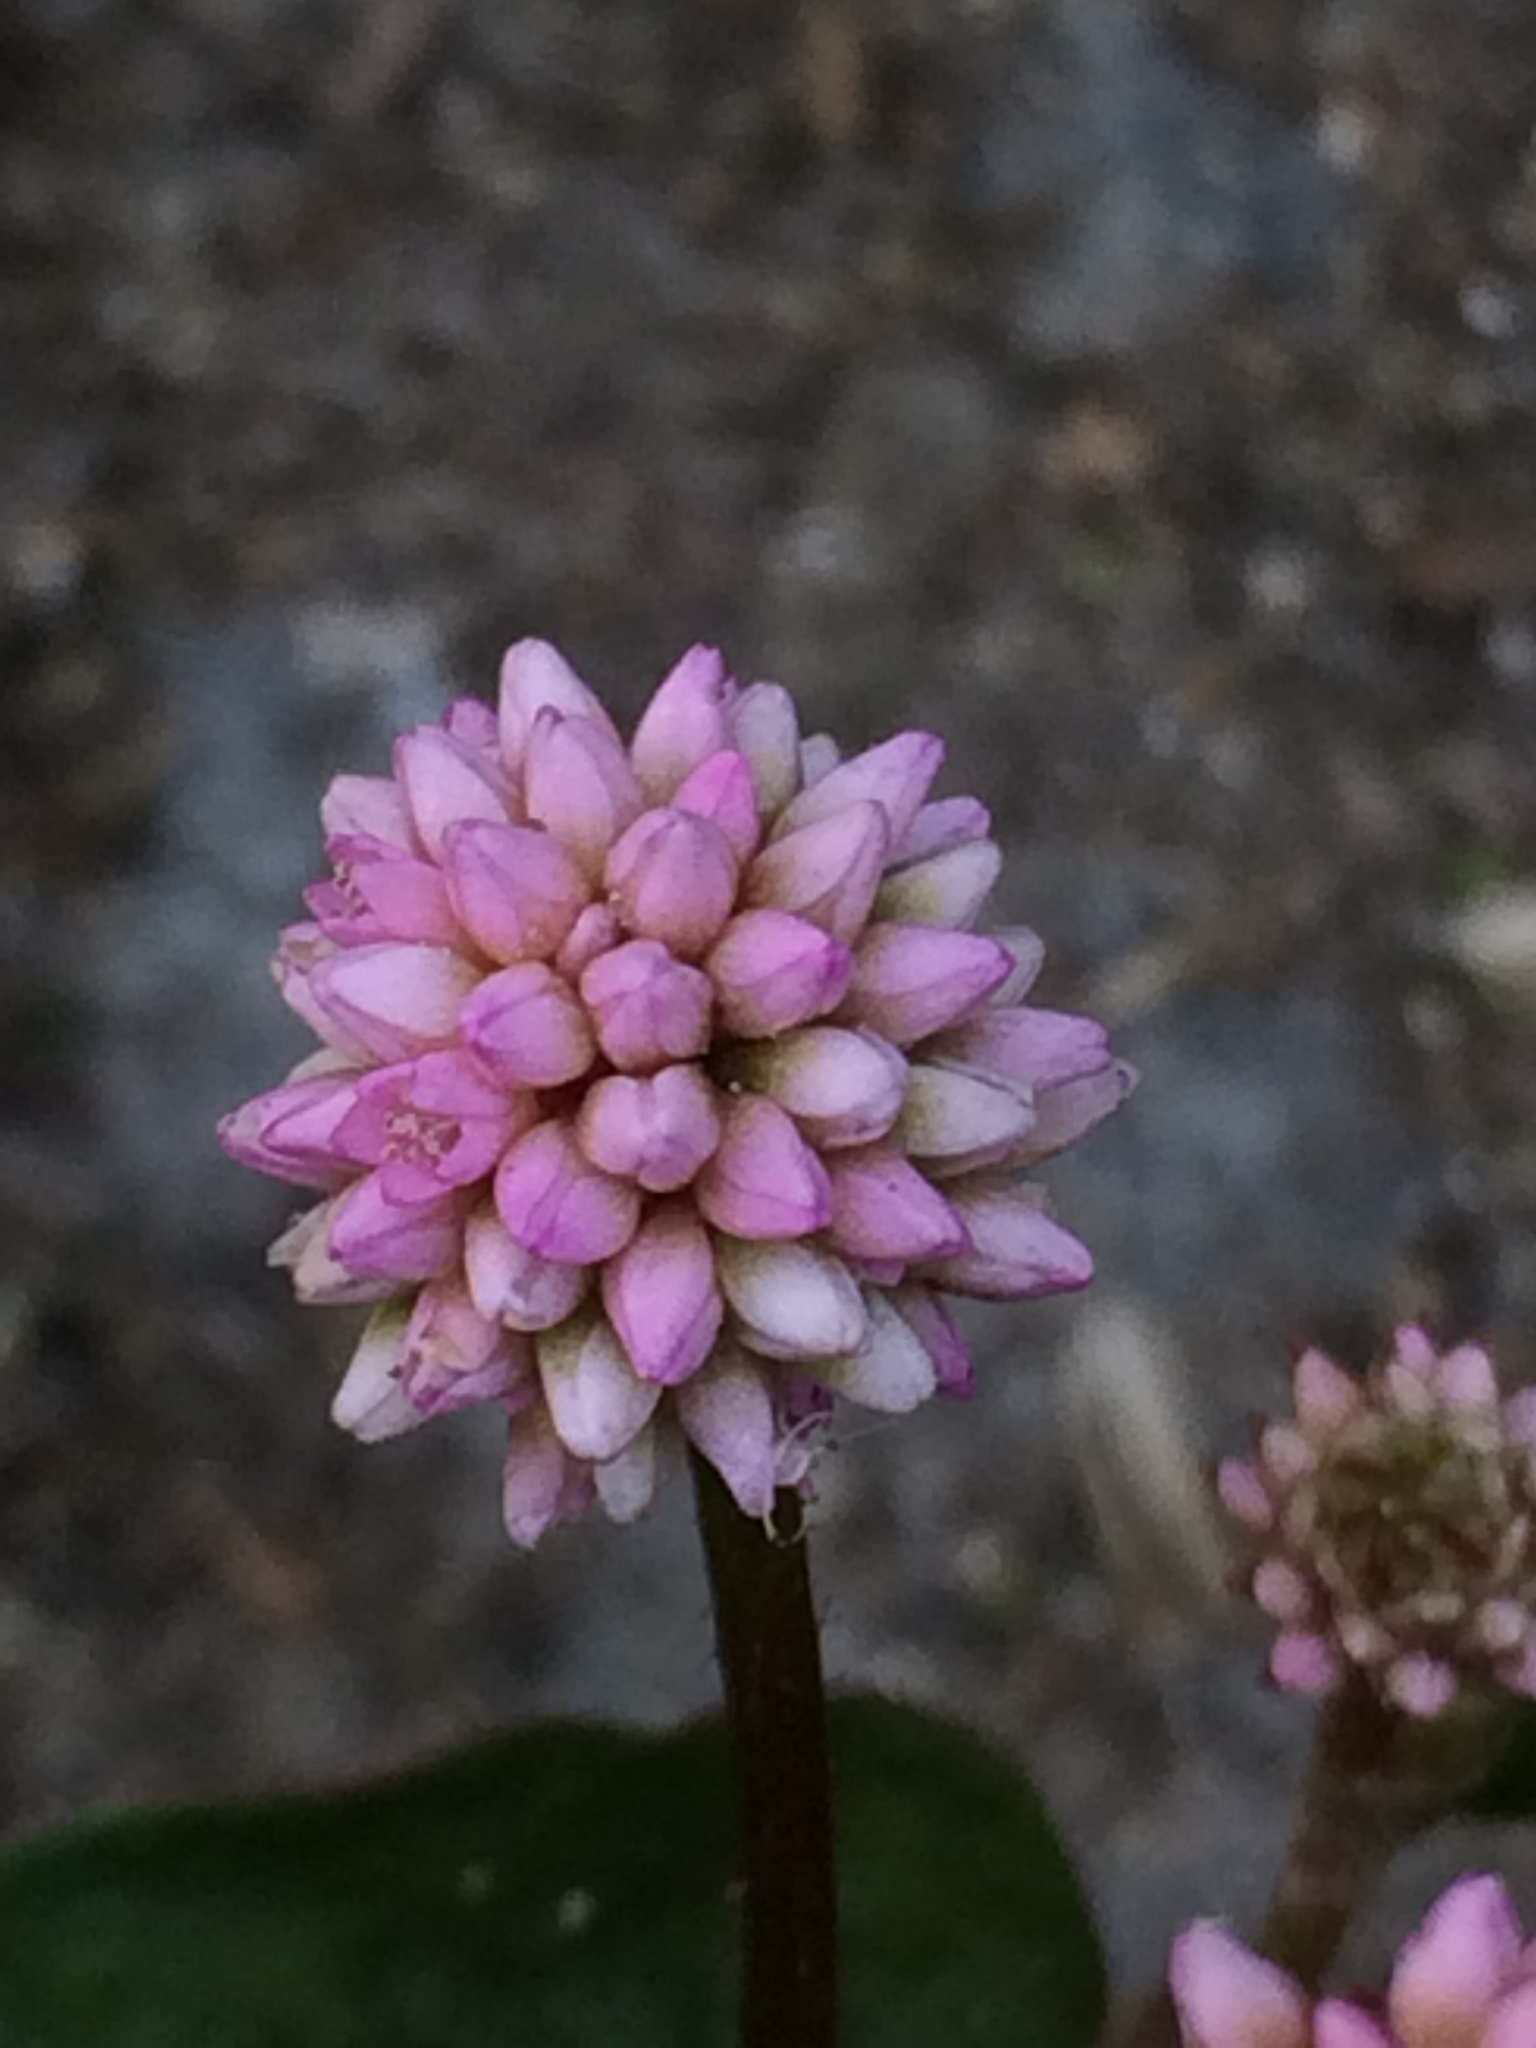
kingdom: Plantae
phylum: Tracheophyta
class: Magnoliopsida
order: Caryophyllales
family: Polygonaceae
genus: Persicaria
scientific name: Persicaria capitata
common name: Pinkhead smartweed
